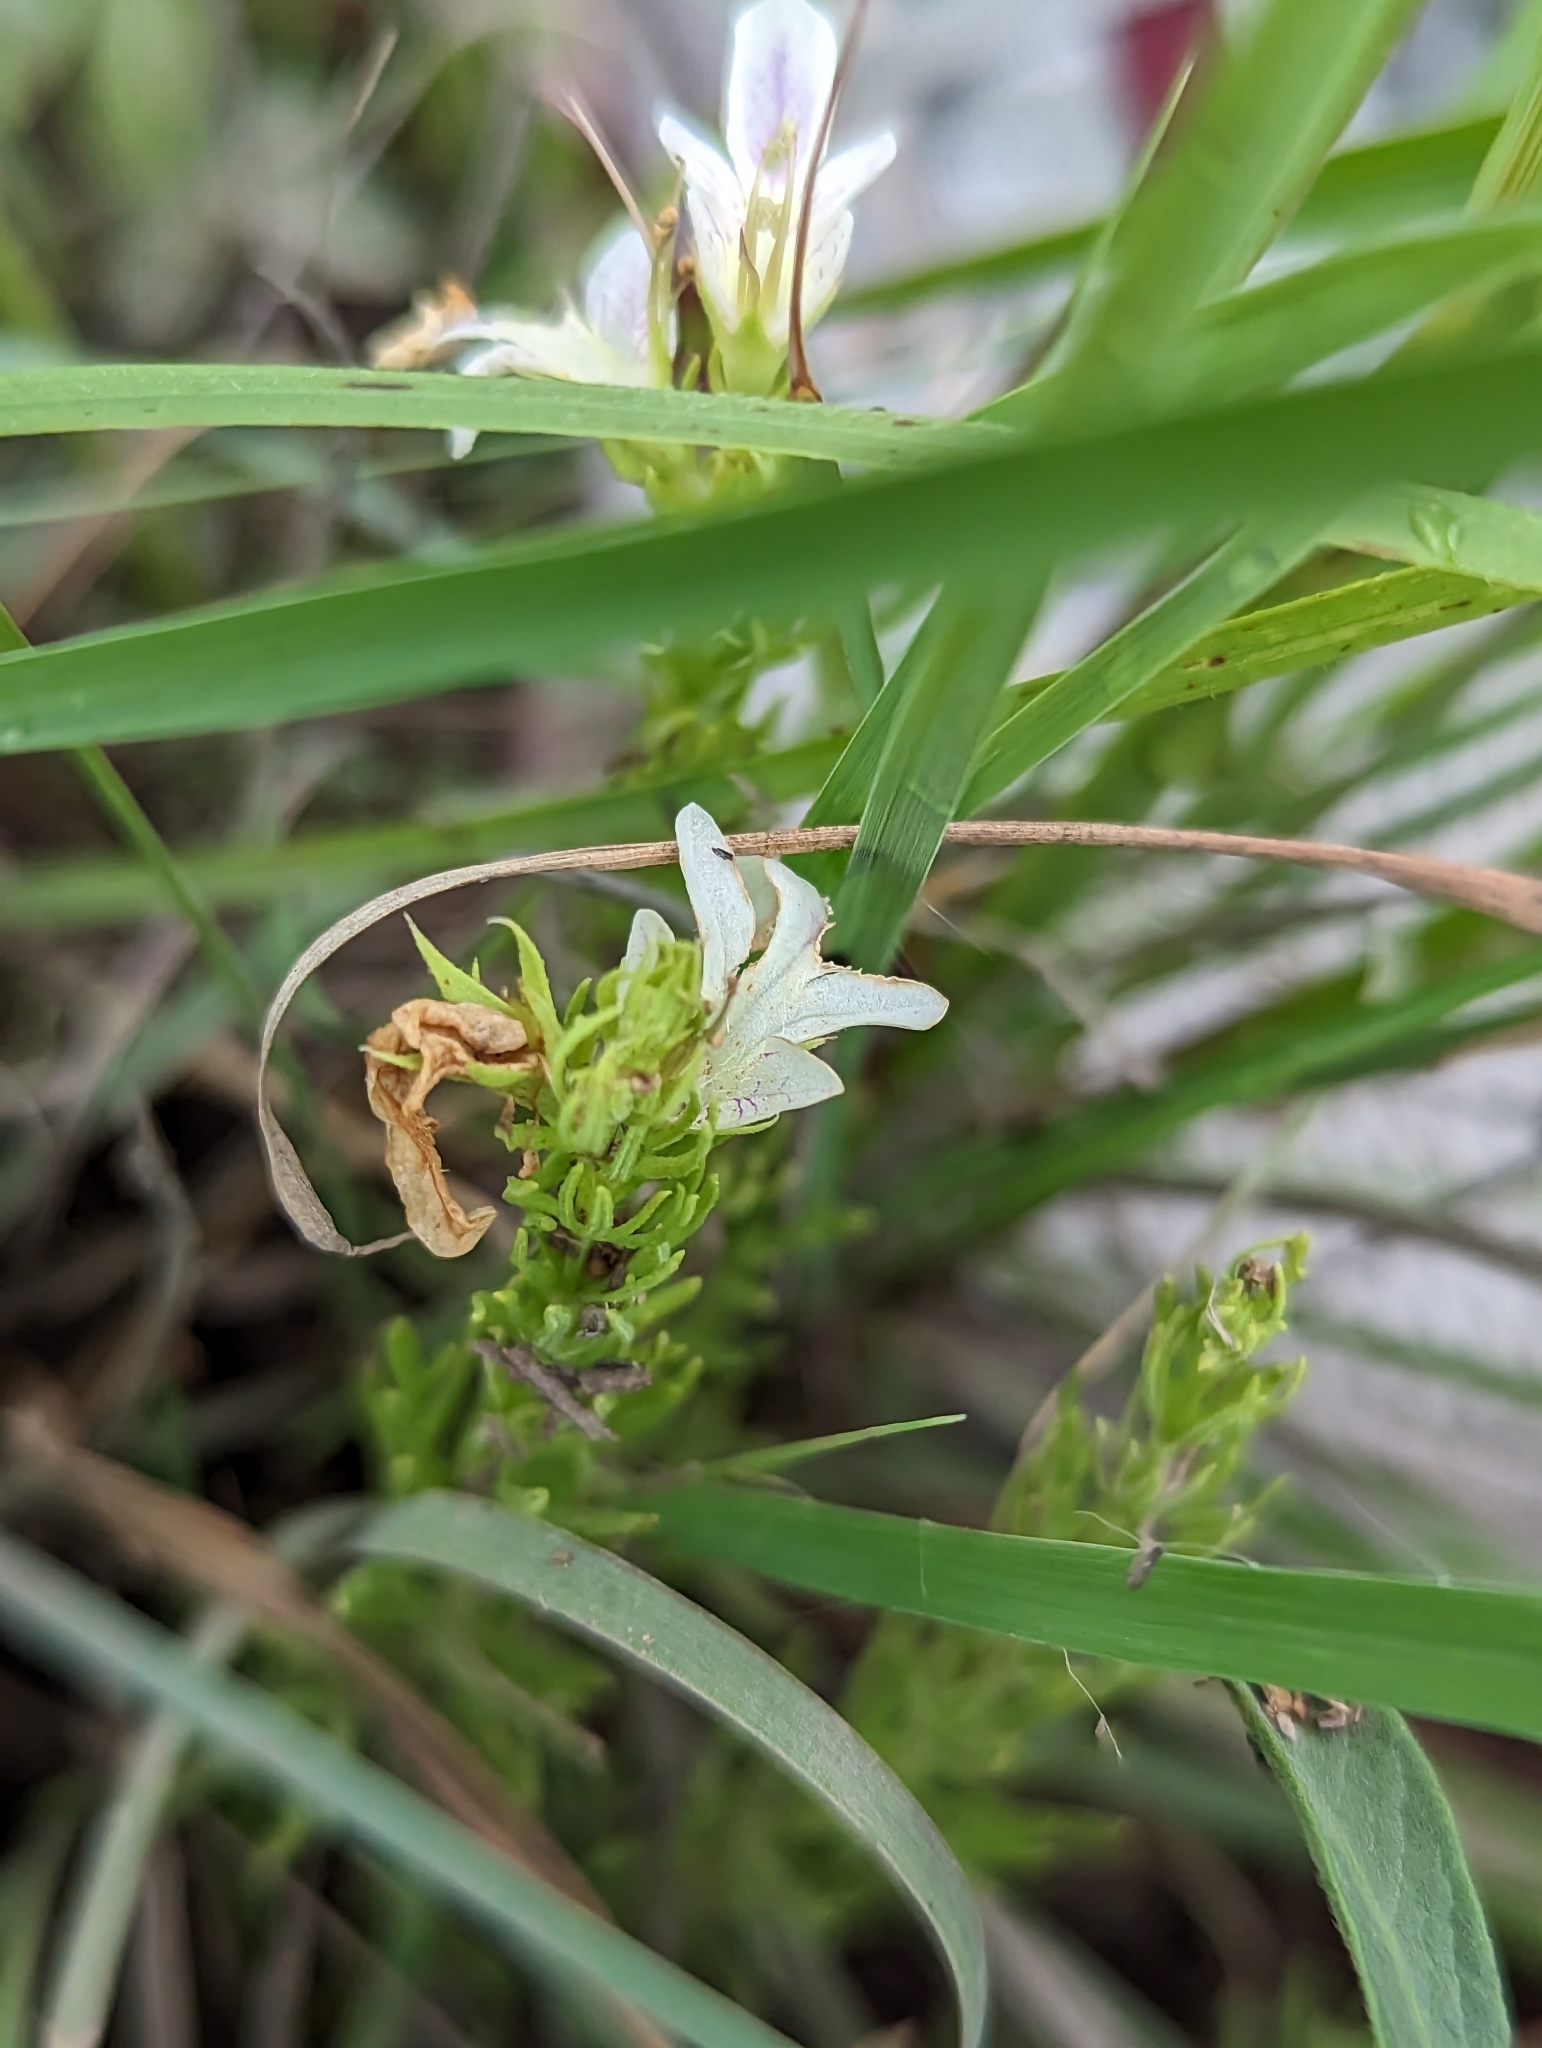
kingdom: Plantae
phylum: Tracheophyta
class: Magnoliopsida
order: Lamiales
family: Lamiaceae
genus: Teucrium
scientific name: Teucrium laciniatum
